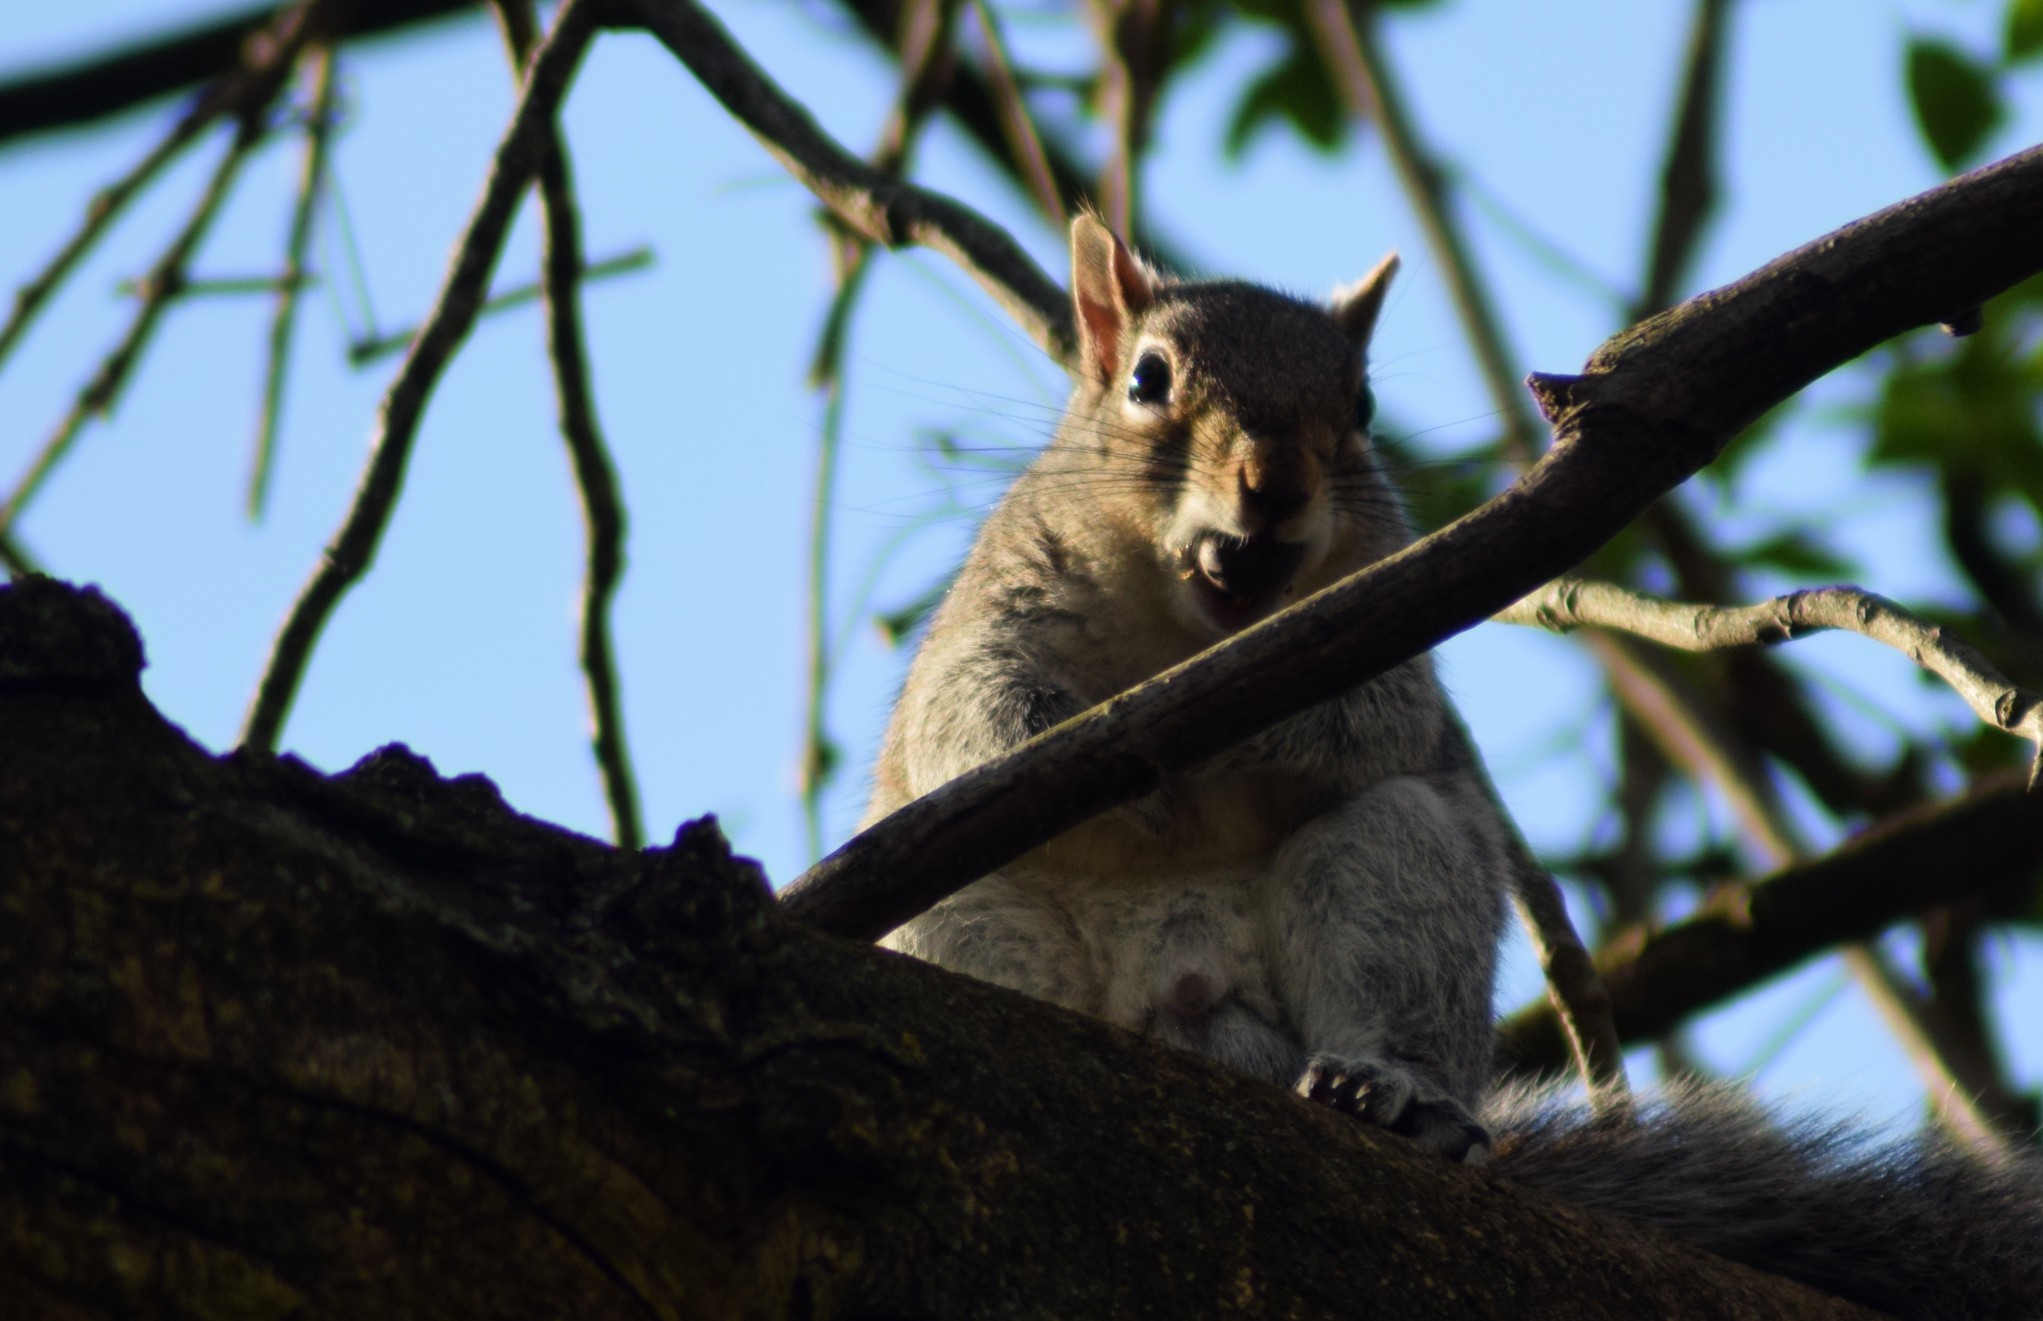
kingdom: Animalia
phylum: Chordata
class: Mammalia
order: Rodentia
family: Sciuridae
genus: Sciurus
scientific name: Sciurus carolinensis
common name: Eastern gray squirrel
